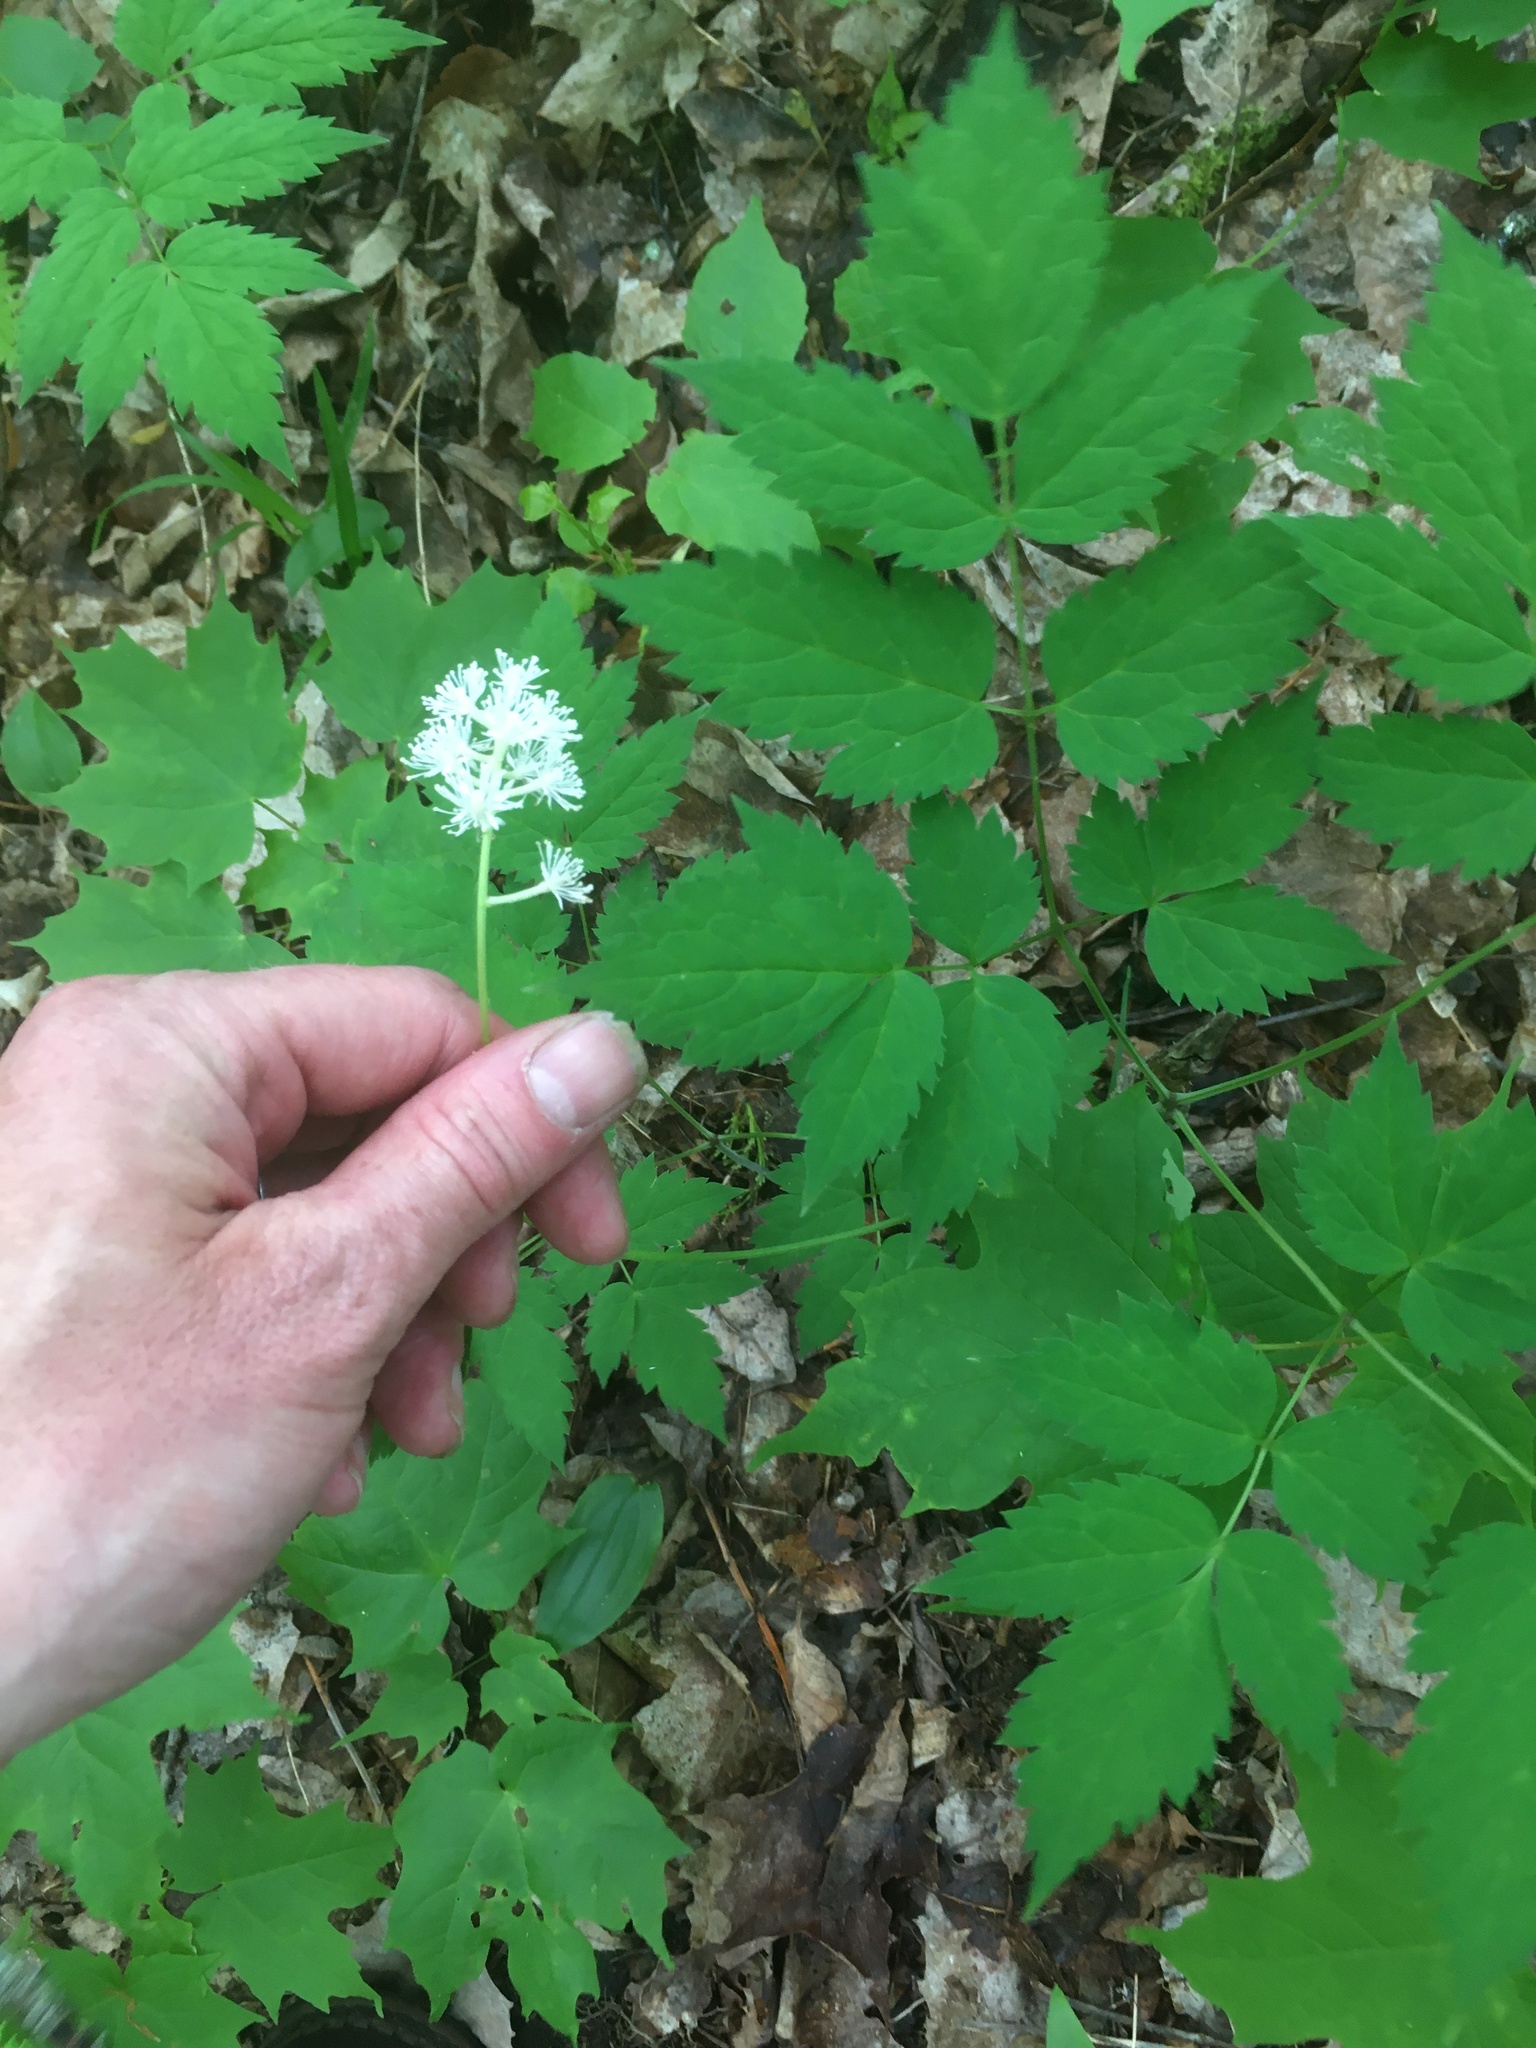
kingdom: Plantae
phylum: Tracheophyta
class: Magnoliopsida
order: Ranunculales
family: Ranunculaceae
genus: Actaea
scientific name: Actaea pachypoda
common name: Doll's-eyes
